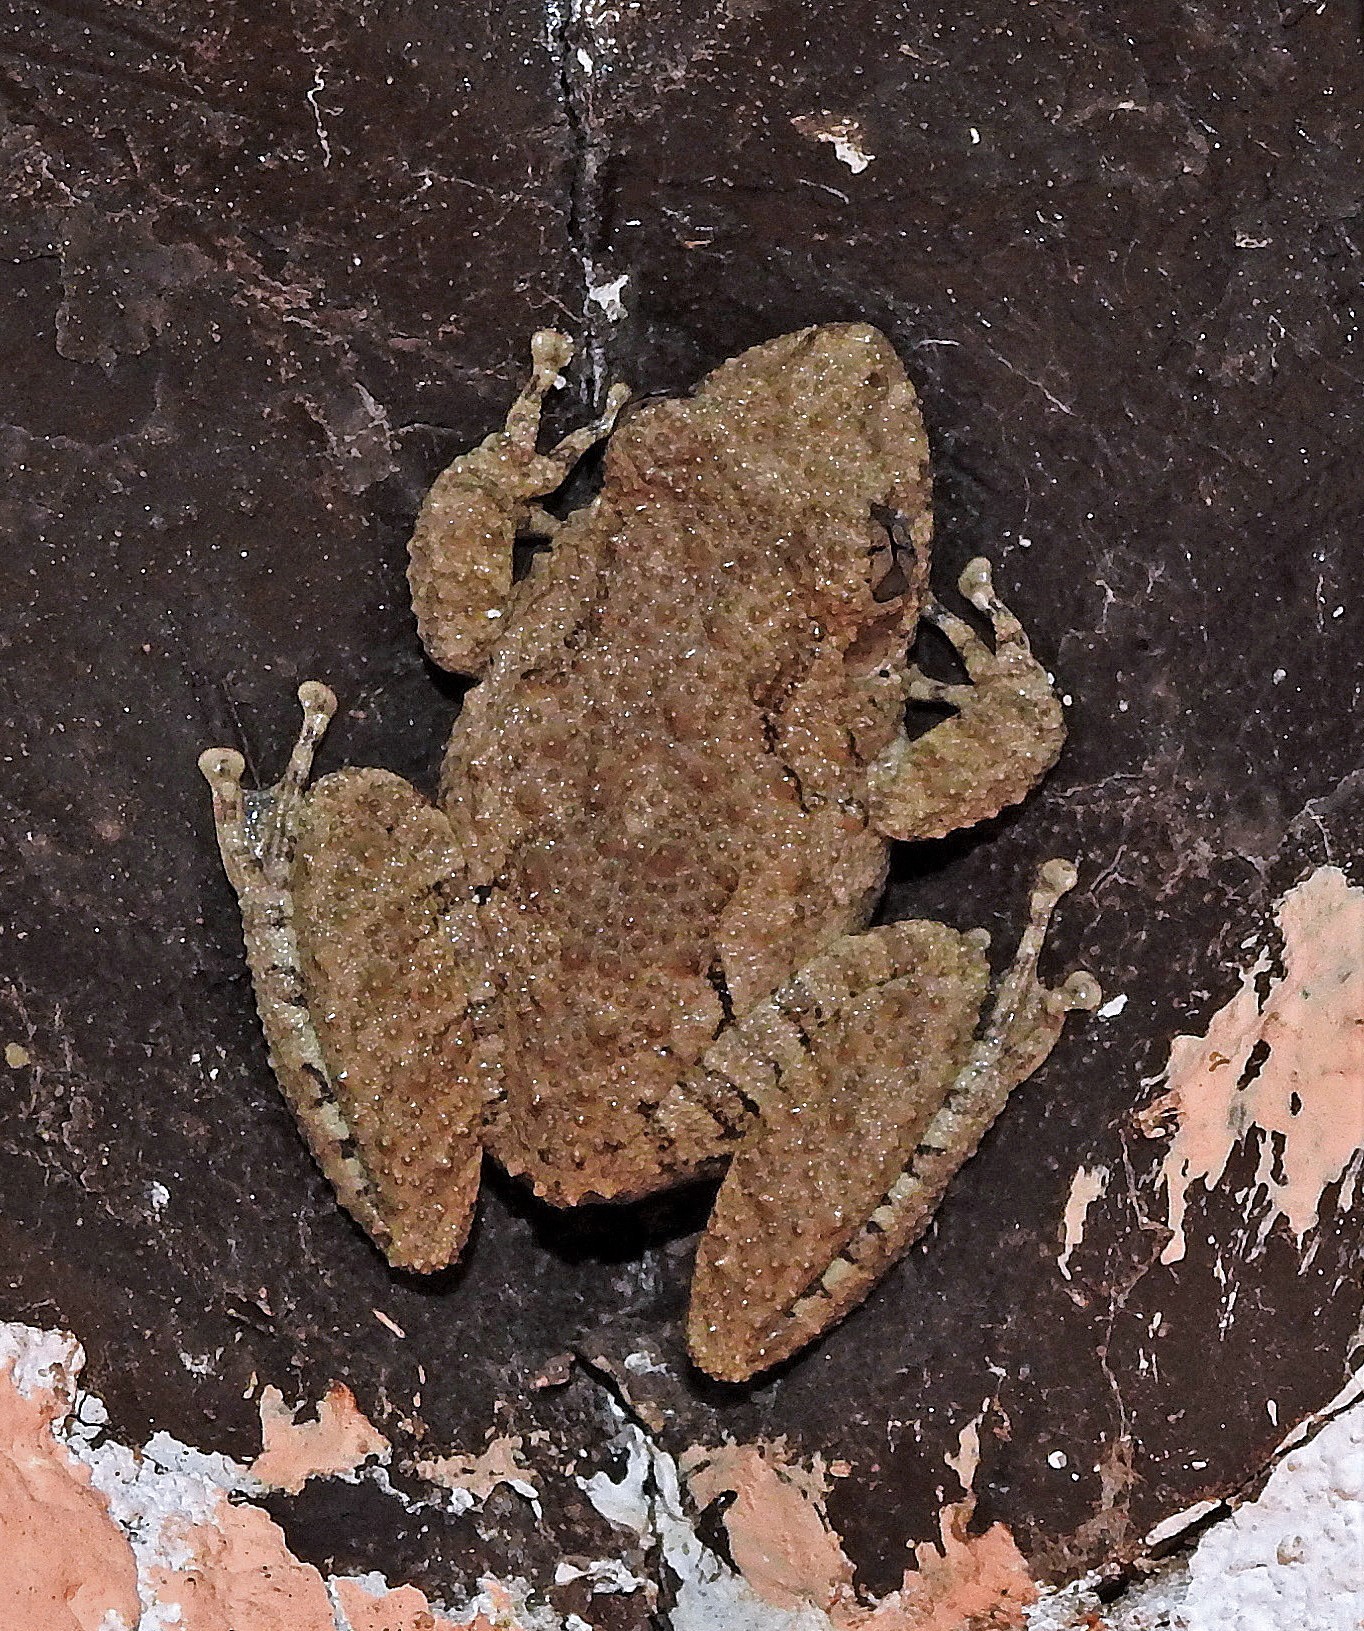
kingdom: Animalia
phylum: Chordata
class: Amphibia
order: Anura
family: Hylidae
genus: Scinax
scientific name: Scinax acuminatus
